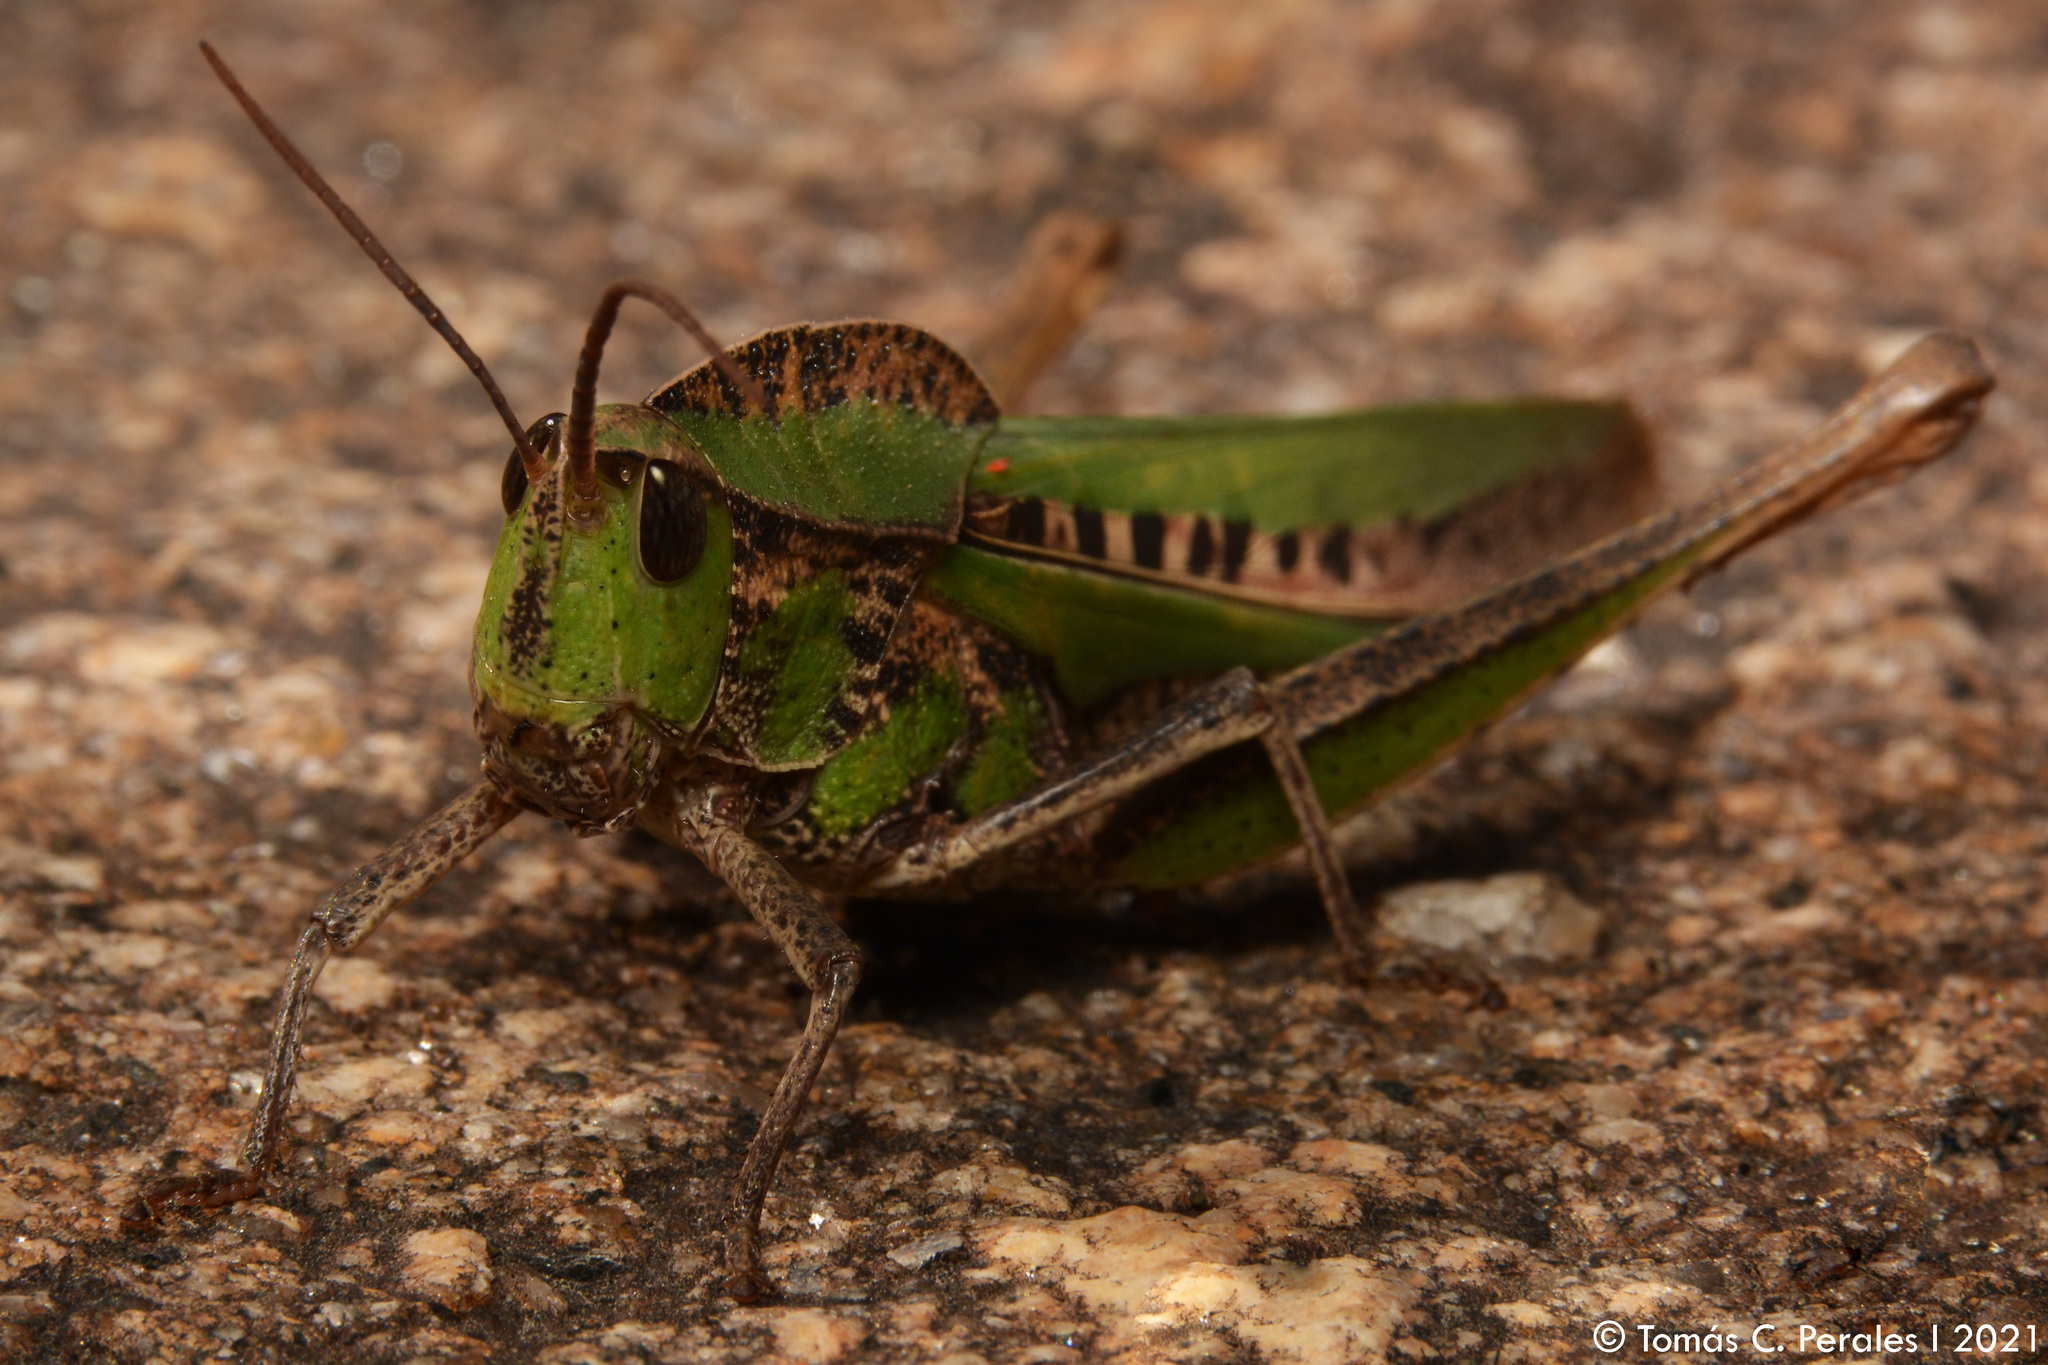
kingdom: Animalia
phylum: Arthropoda
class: Insecta
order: Orthoptera
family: Romaleidae
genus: Xyleus
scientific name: Xyleus laevipes
